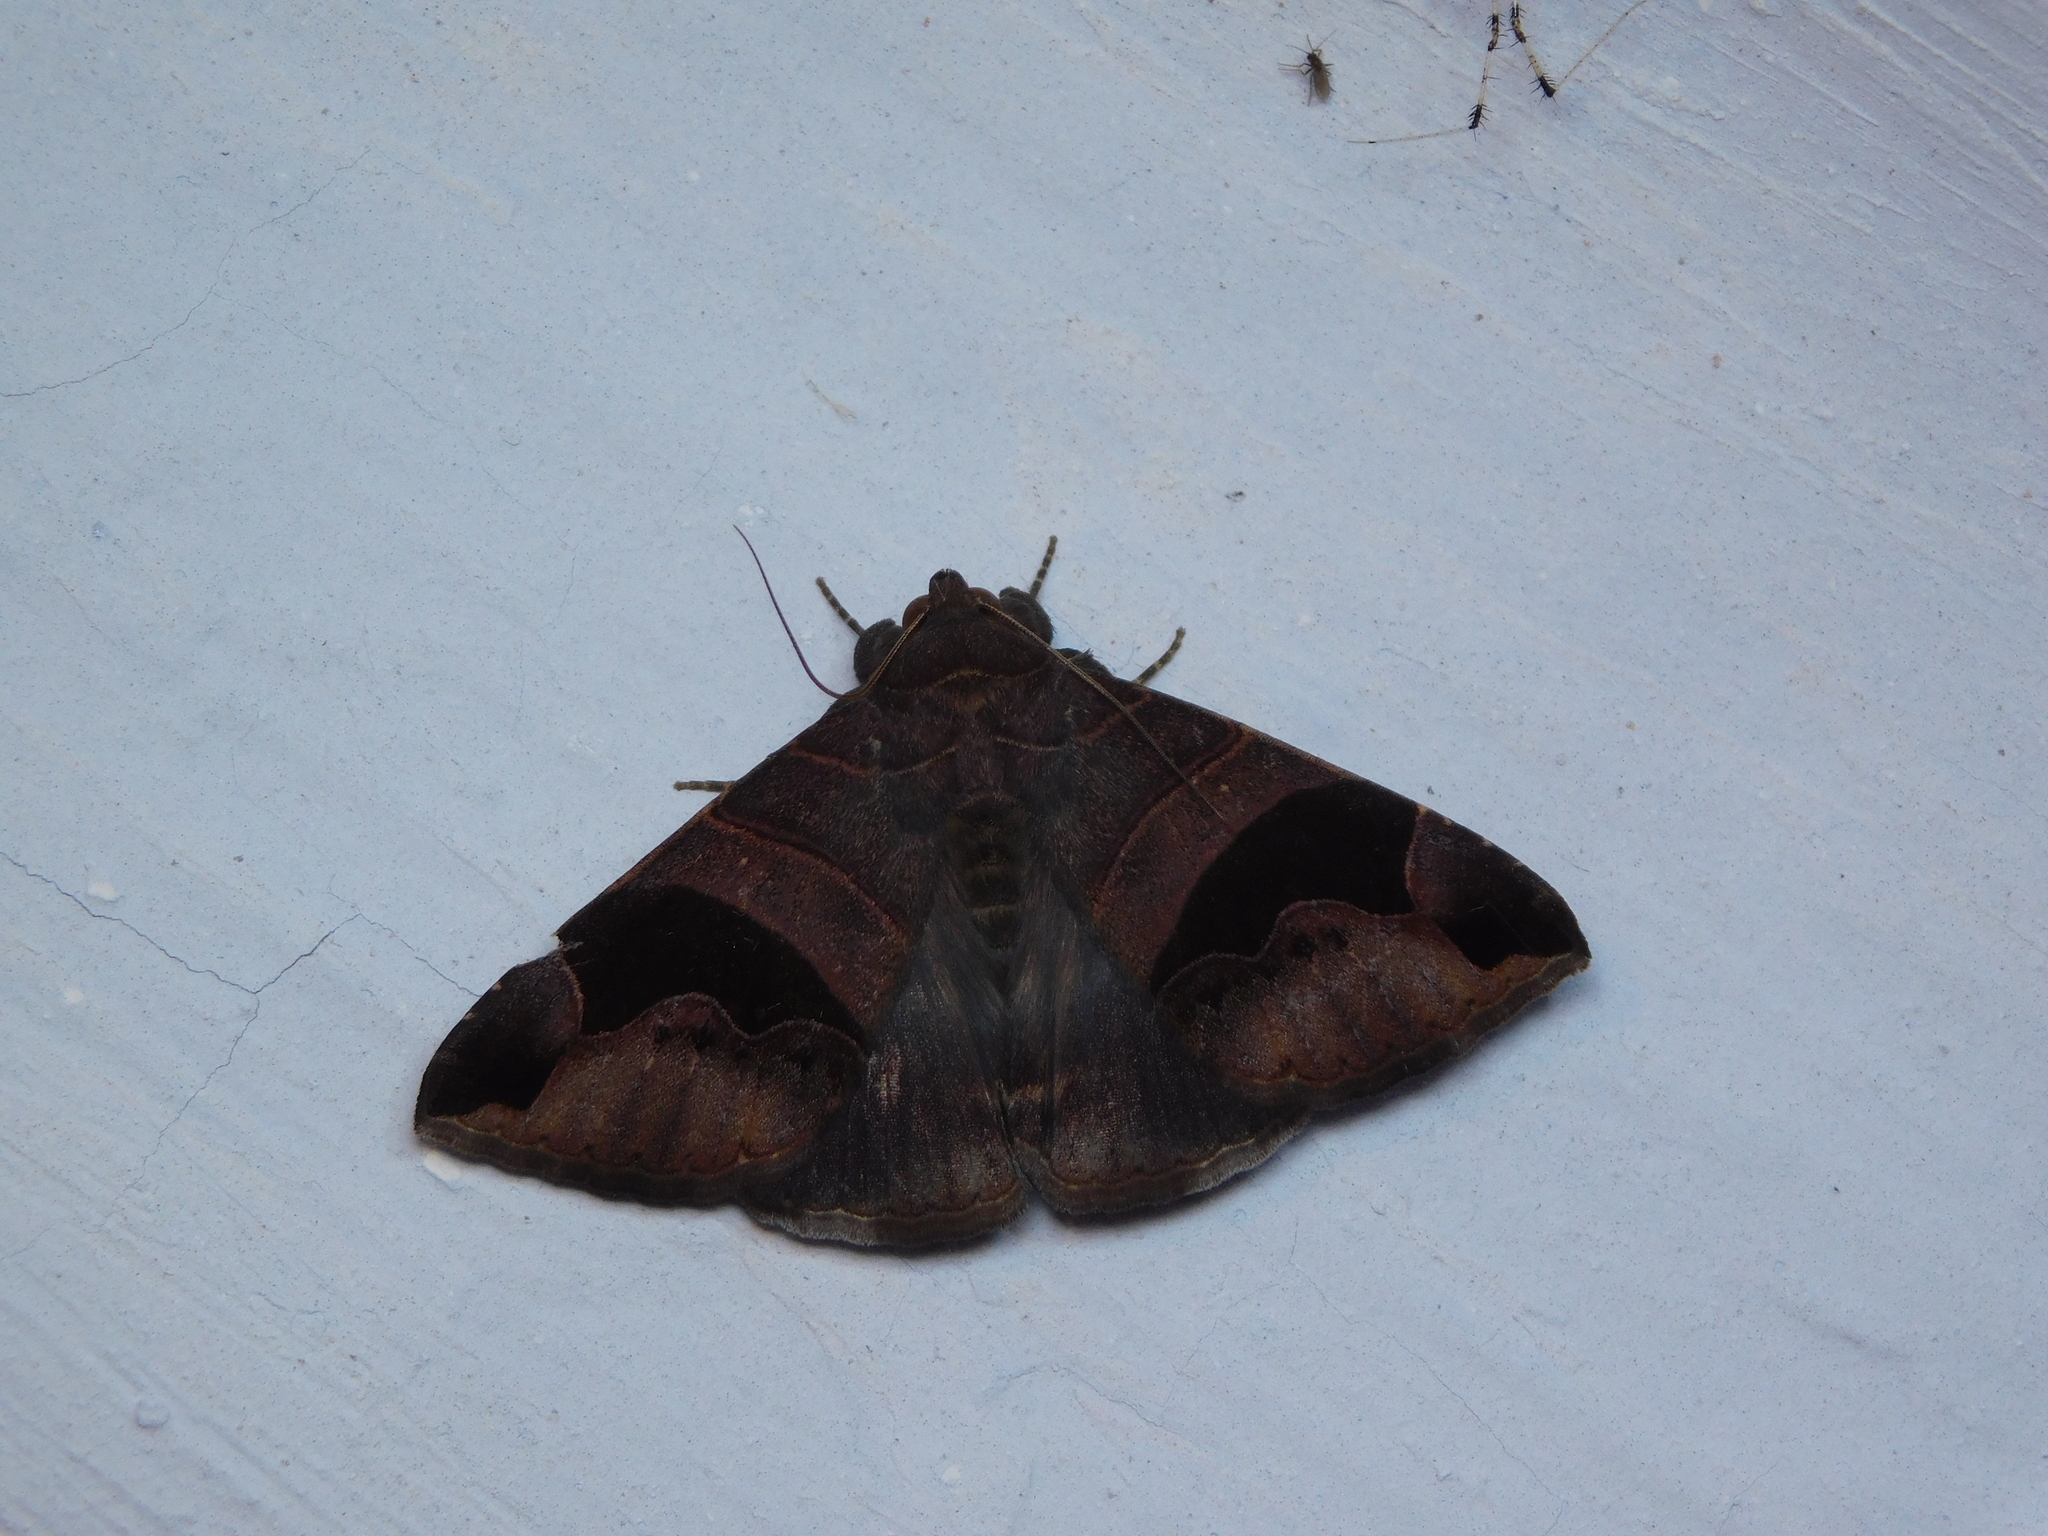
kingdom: Animalia
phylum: Arthropoda
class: Insecta
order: Lepidoptera
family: Erebidae
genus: Bastilla
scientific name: Bastilla joviana
